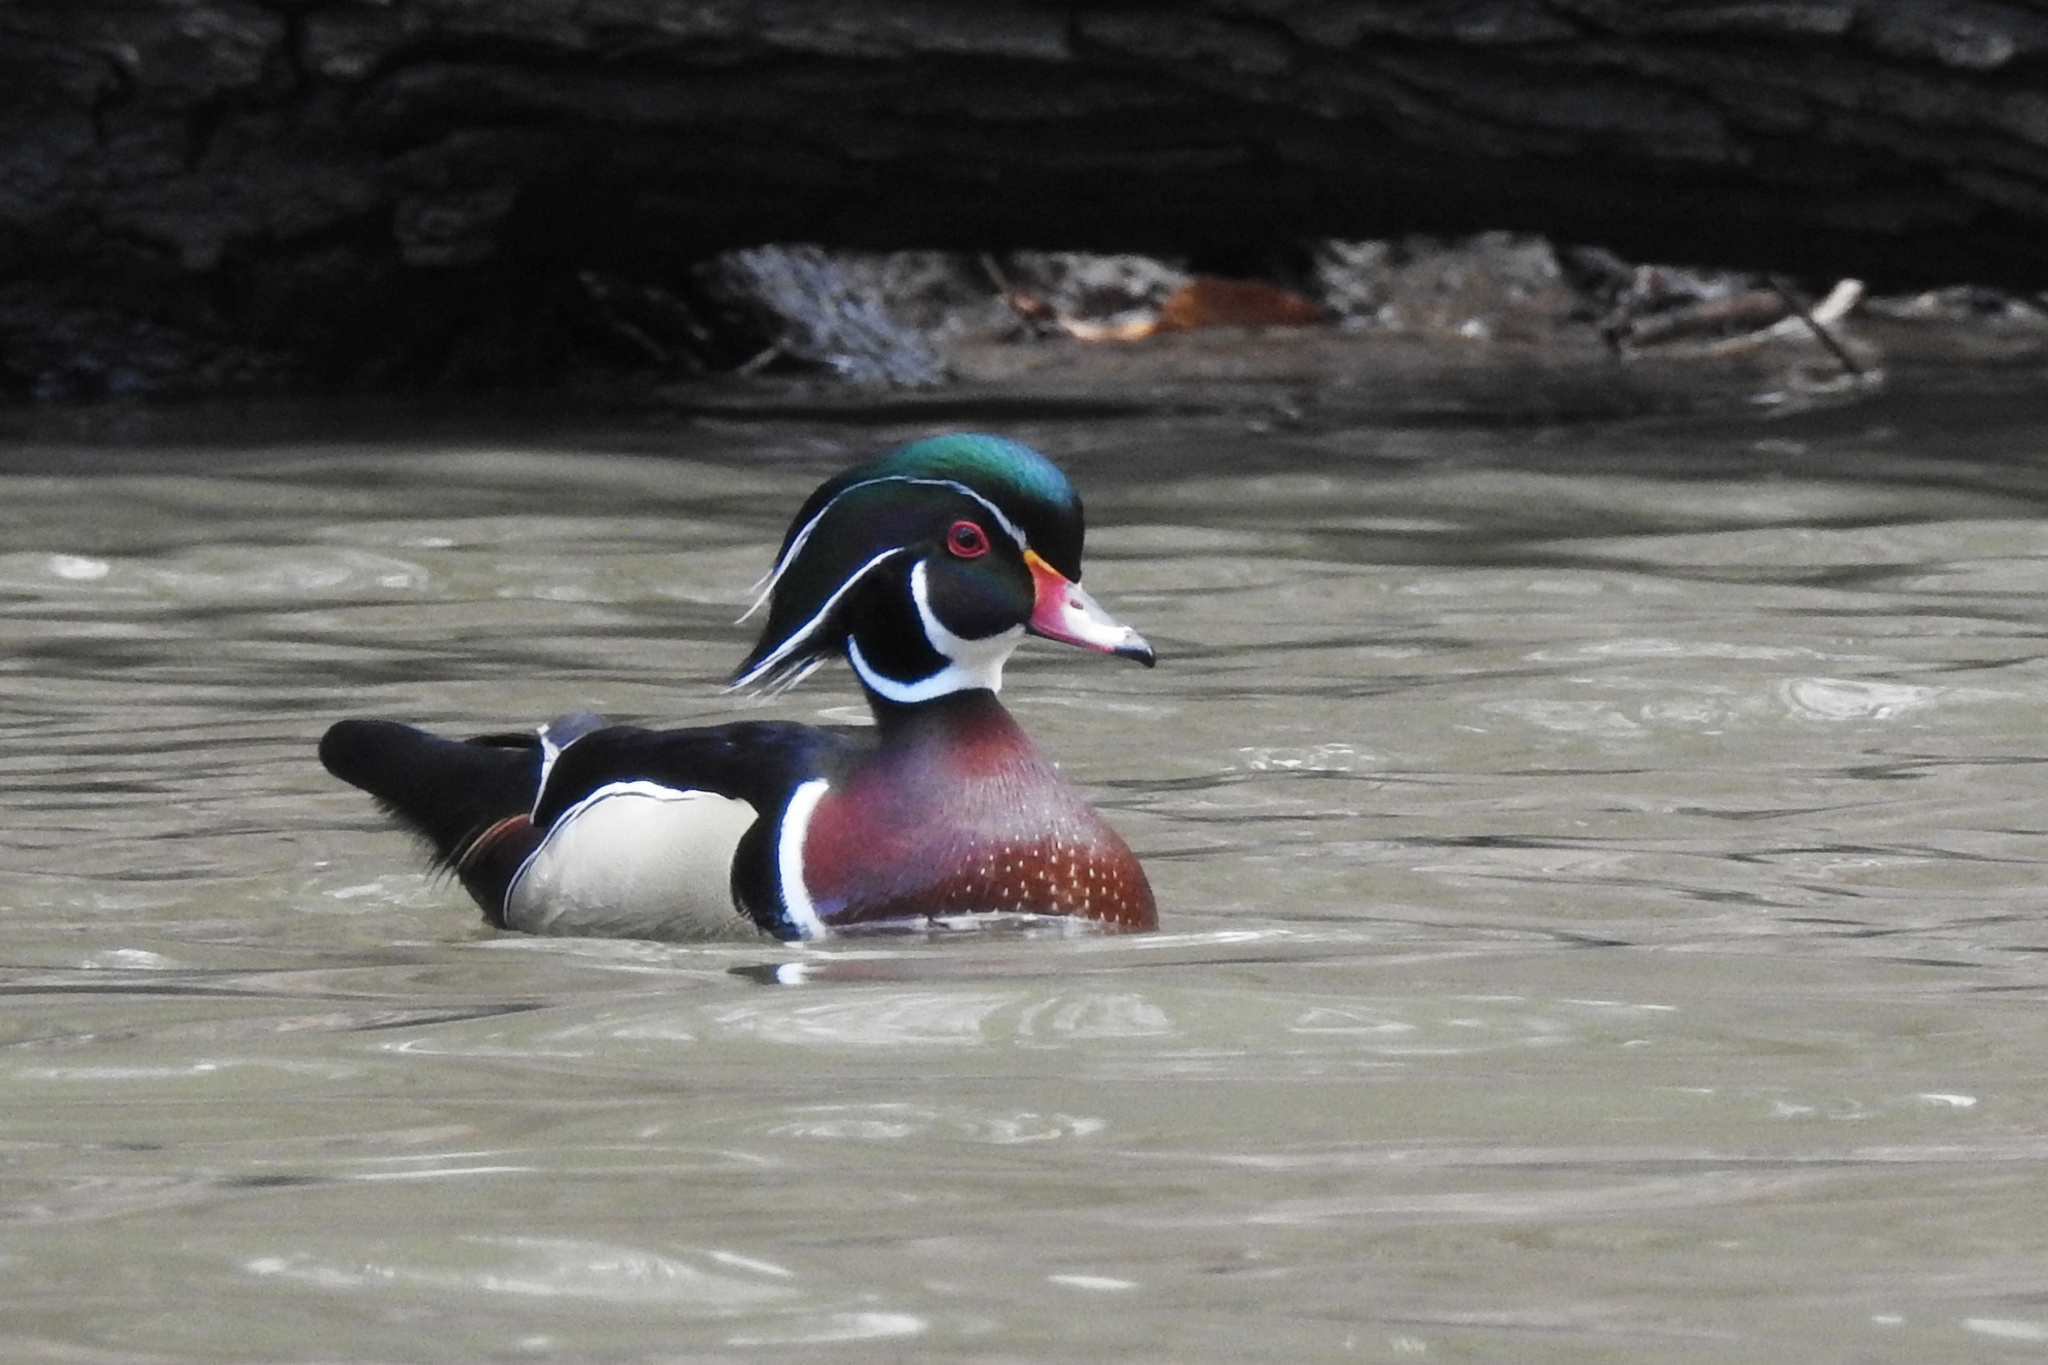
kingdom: Animalia
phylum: Chordata
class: Aves
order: Anseriformes
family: Anatidae
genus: Aix
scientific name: Aix sponsa
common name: Wood duck
